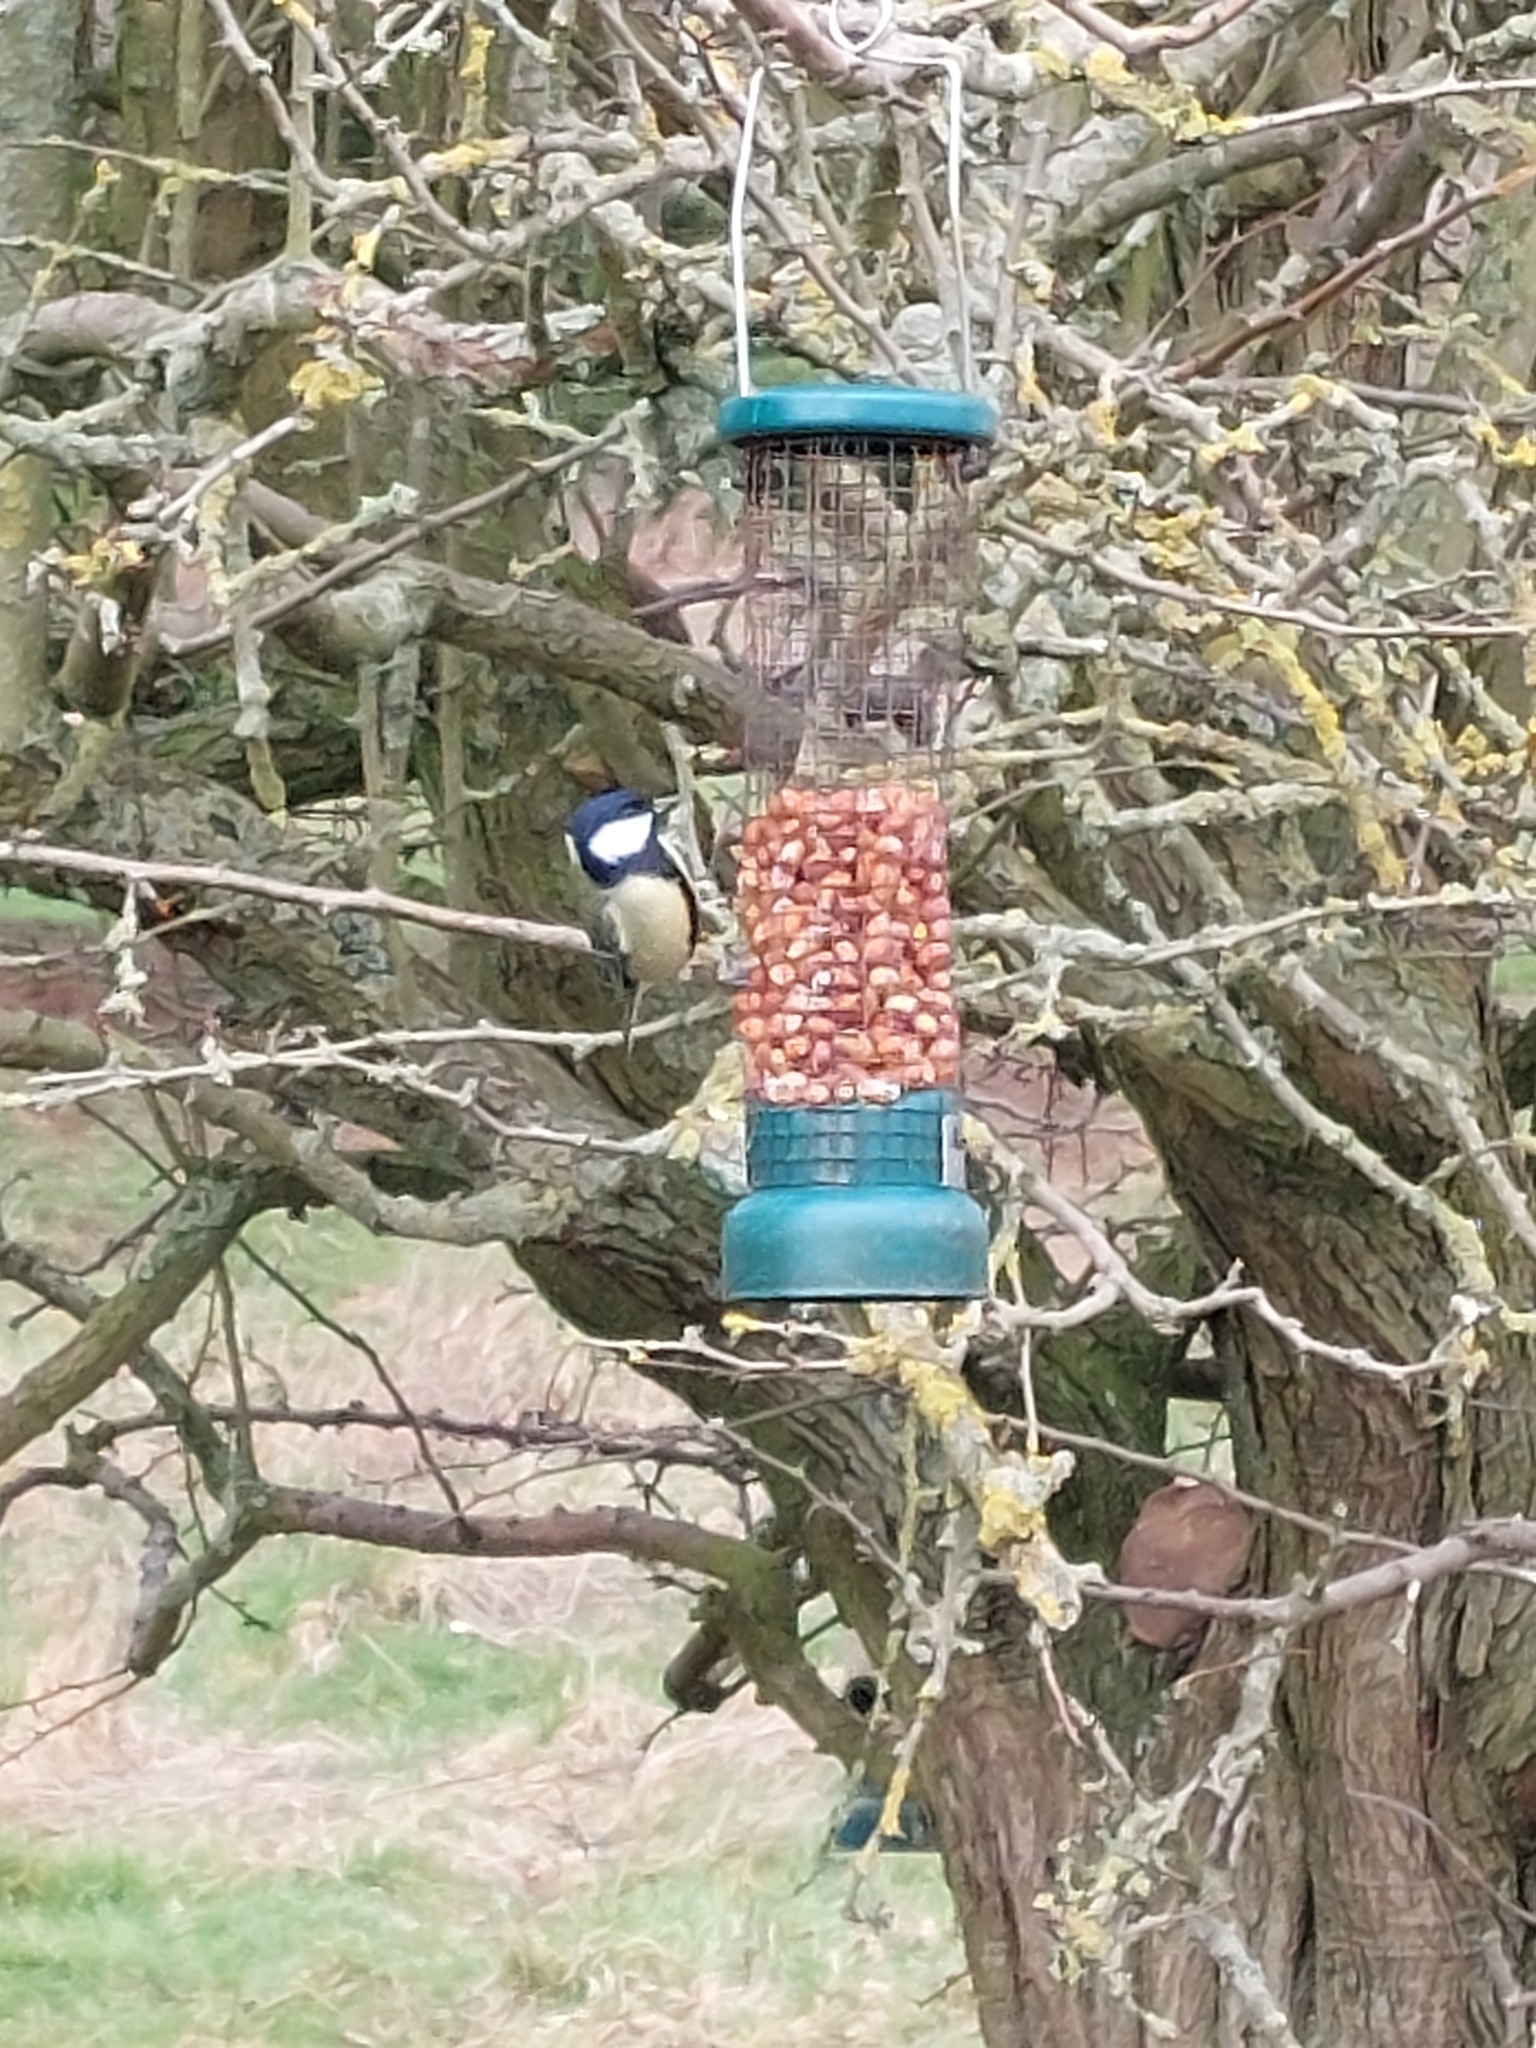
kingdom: Animalia
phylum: Chordata
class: Aves
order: Passeriformes
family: Paridae
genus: Parus
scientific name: Parus major
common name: Great tit
